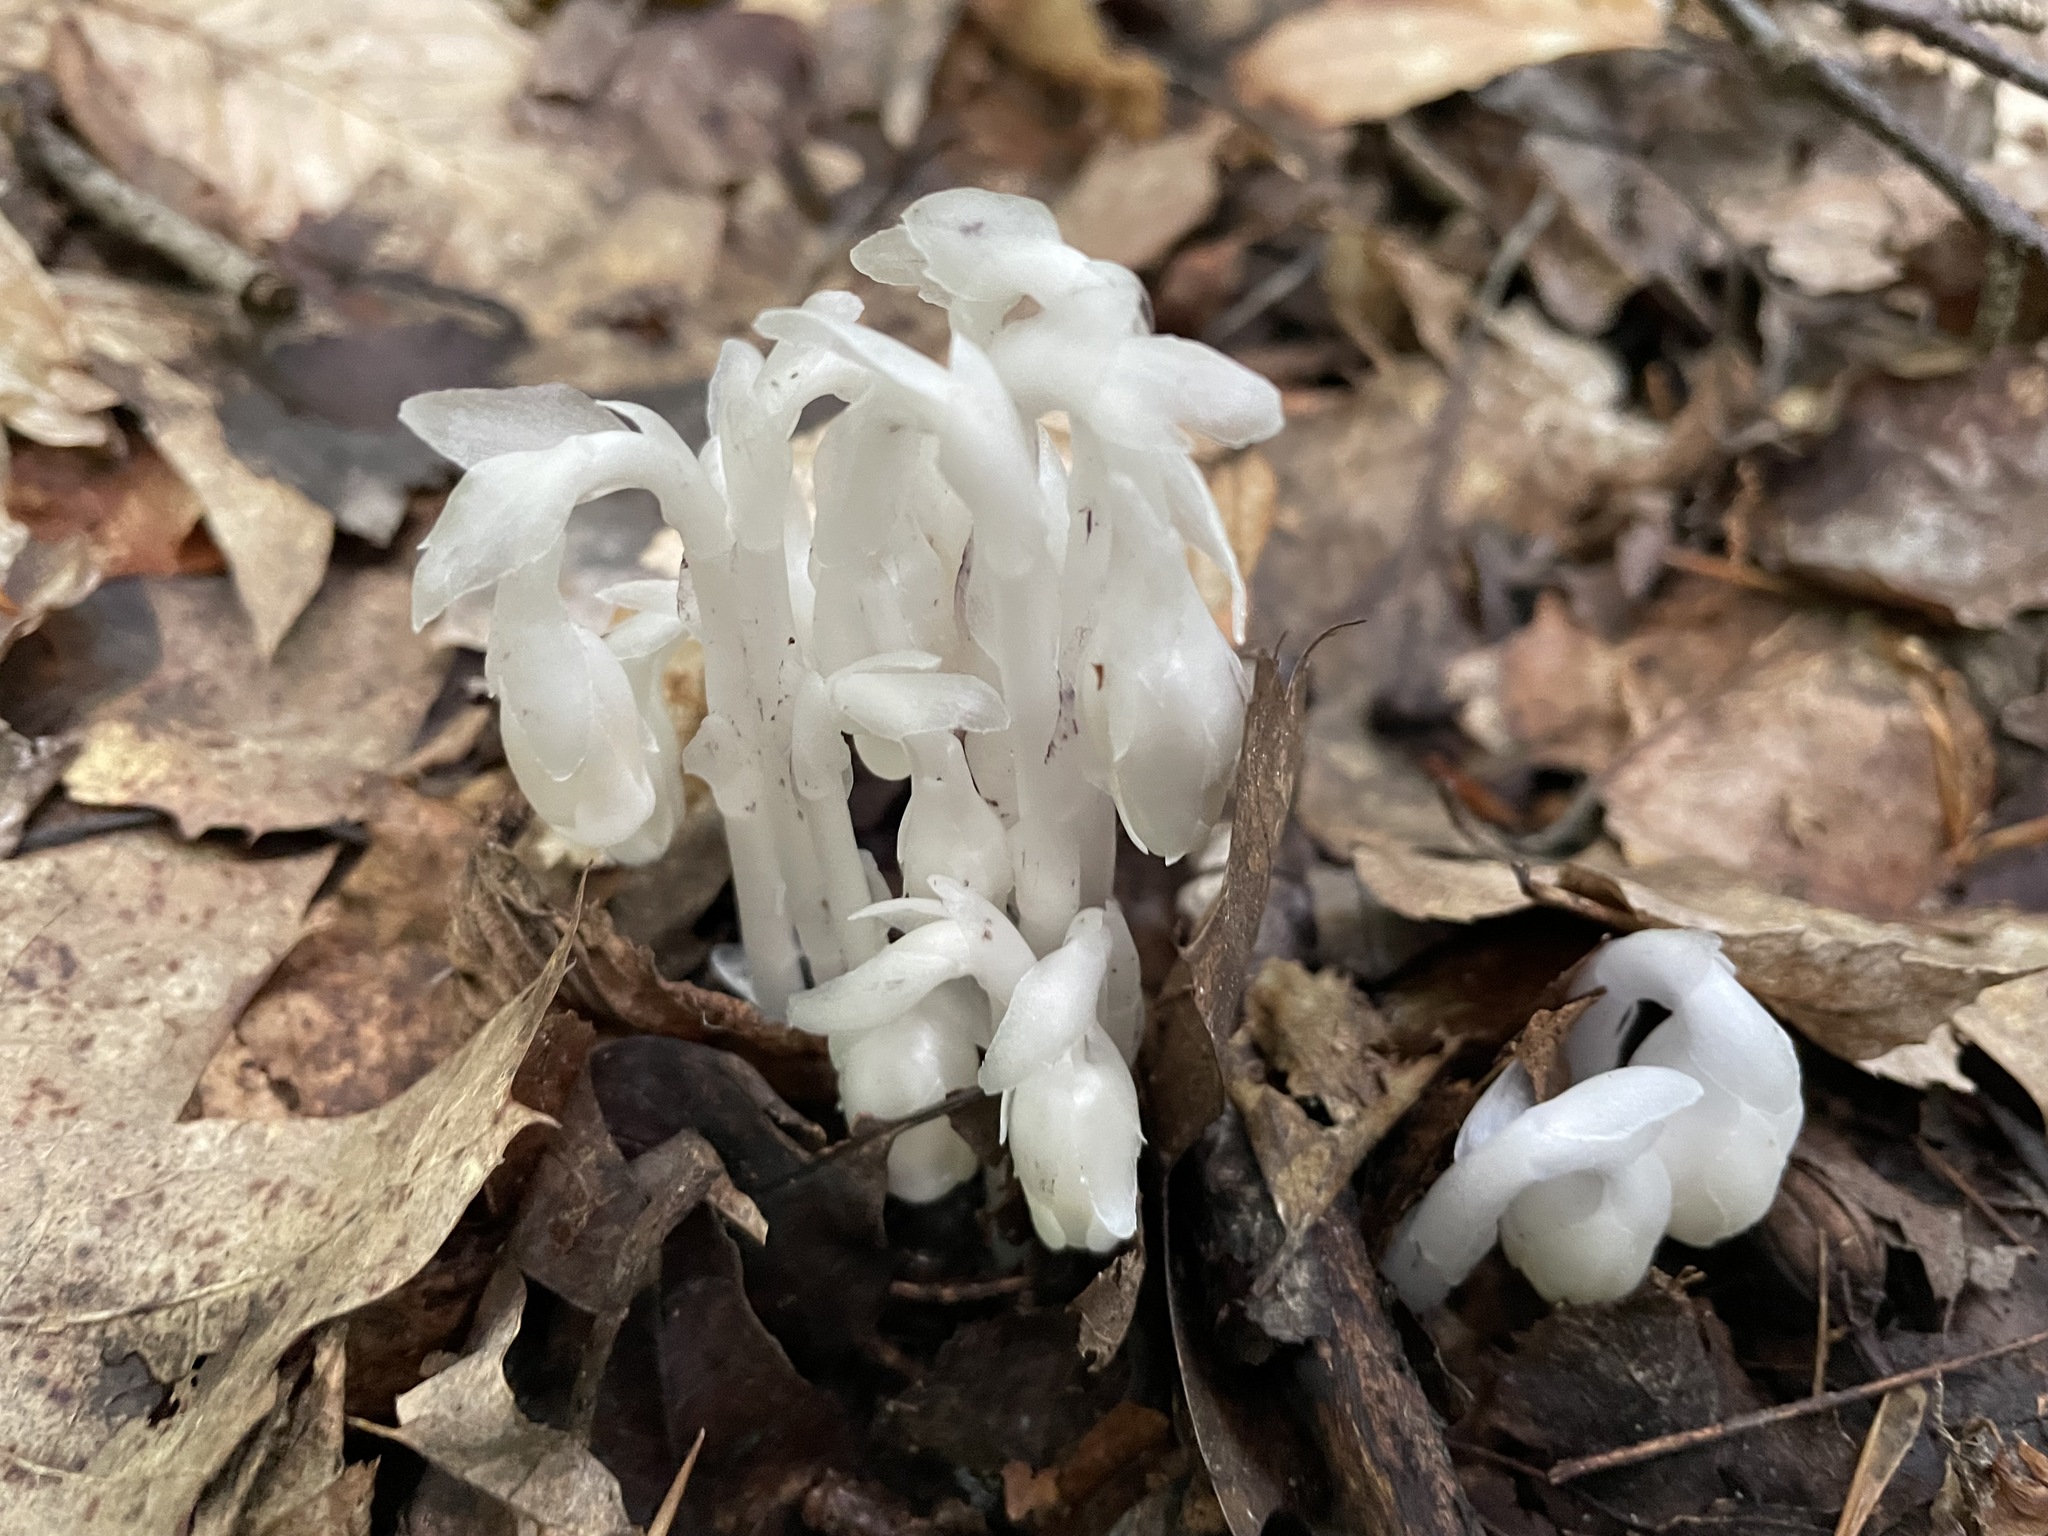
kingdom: Plantae
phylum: Tracheophyta
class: Magnoliopsida
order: Ericales
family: Ericaceae
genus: Monotropa
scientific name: Monotropa uniflora
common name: Convulsion root
